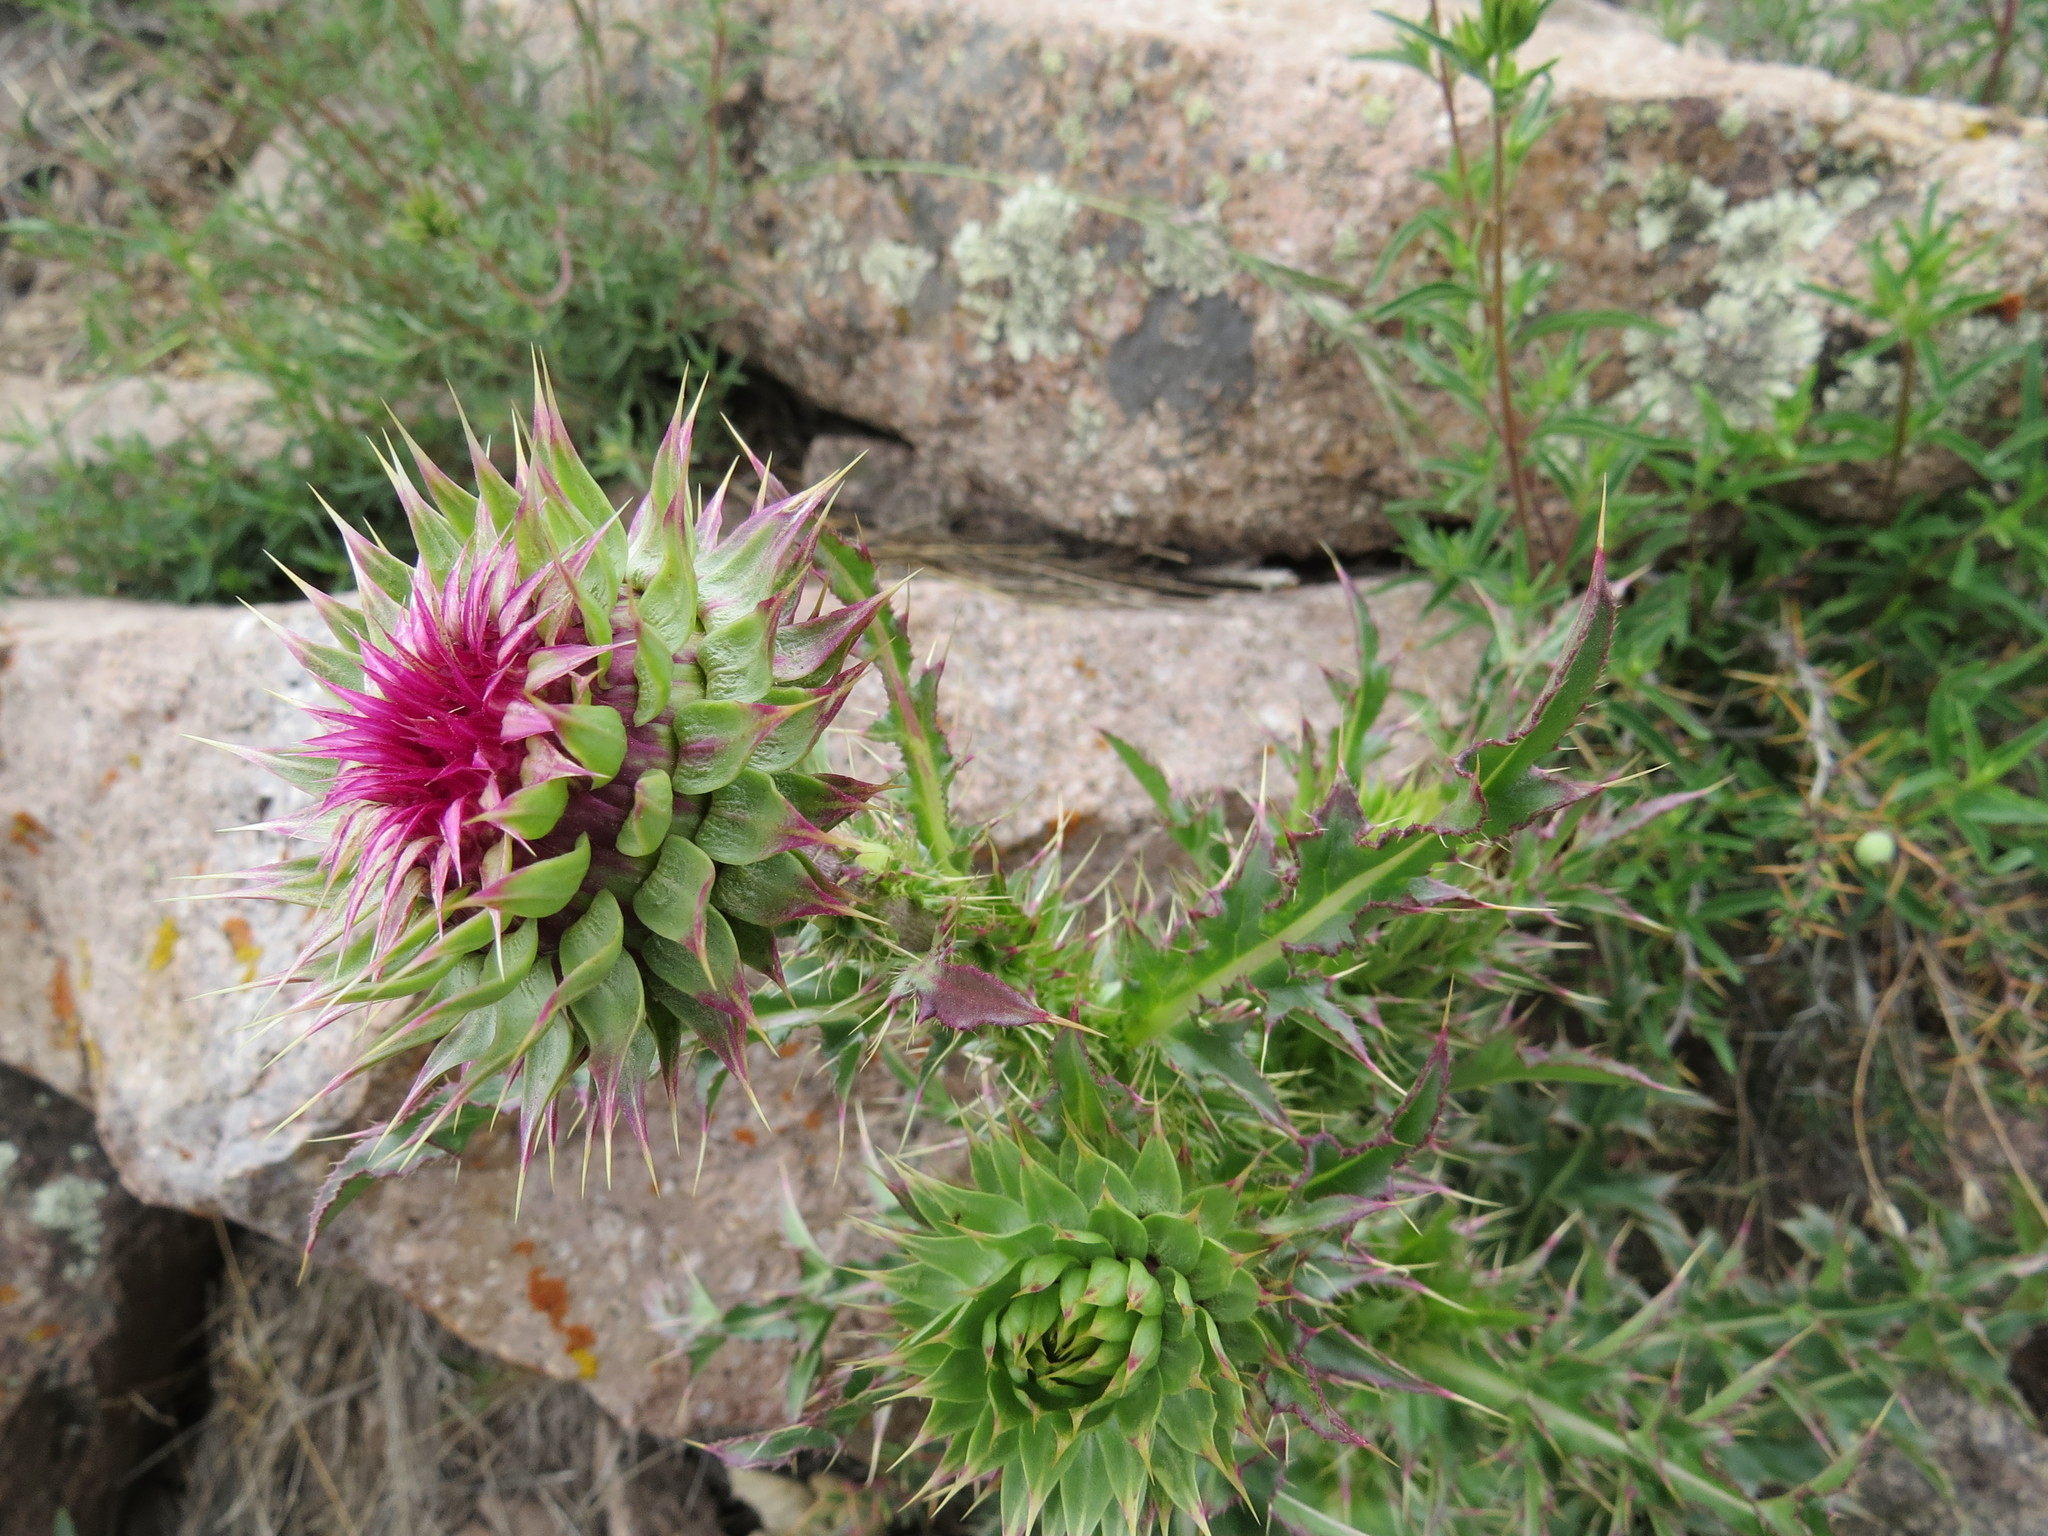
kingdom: Plantae
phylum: Tracheophyta
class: Magnoliopsida
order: Asterales
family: Asteraceae
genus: Carduus
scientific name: Carduus nutans
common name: Musk thistle
